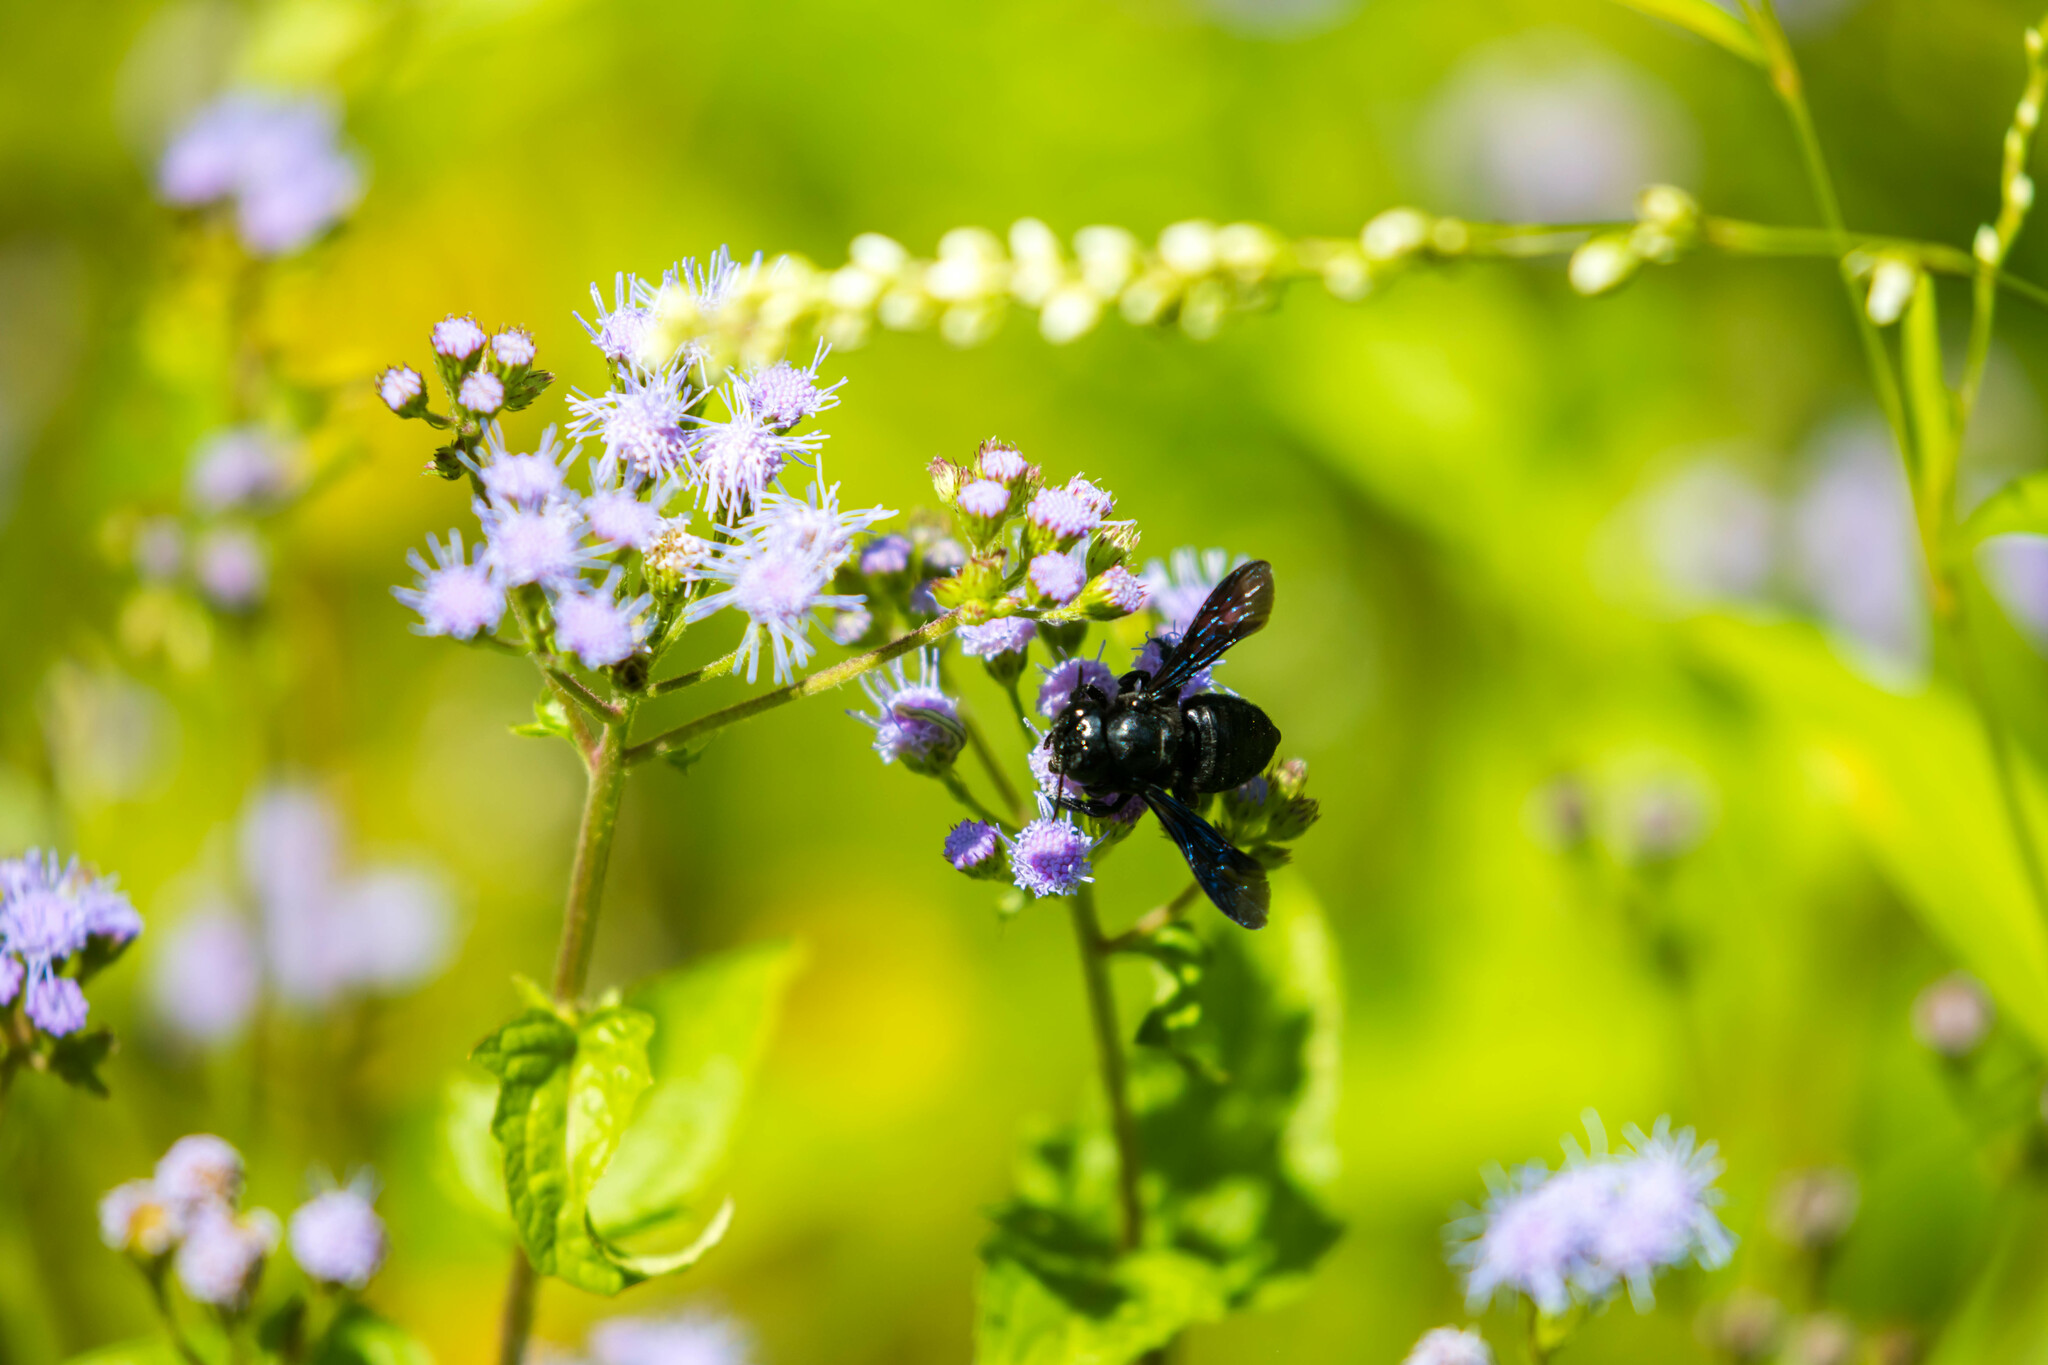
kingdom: Animalia
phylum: Arthropoda
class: Insecta
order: Hymenoptera
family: Megachilidae
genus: Megachile
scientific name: Megachile xylocopoides
